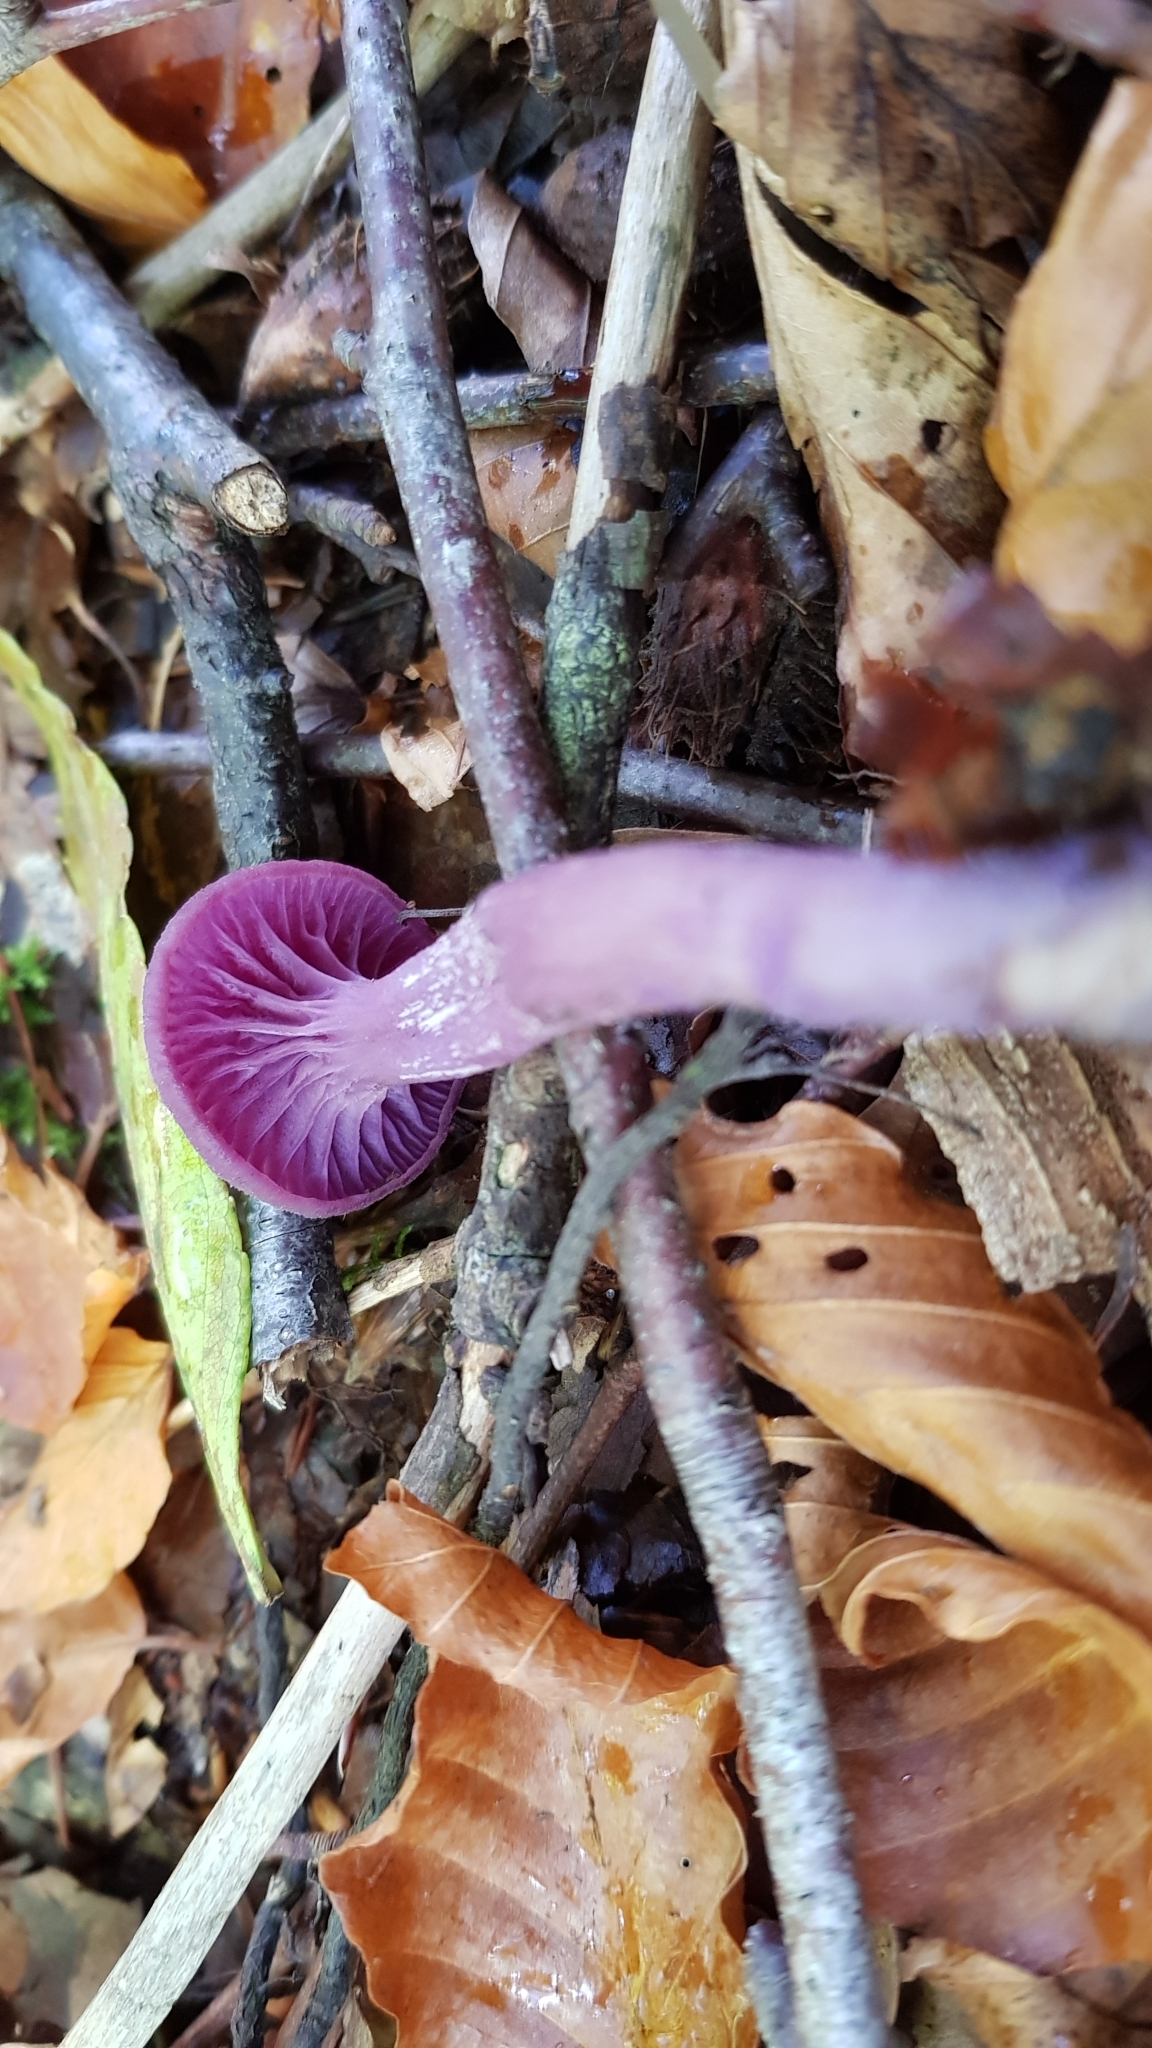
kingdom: Fungi
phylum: Basidiomycota
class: Agaricomycetes
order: Agaricales
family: Hydnangiaceae
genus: Laccaria
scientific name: Laccaria amethystina
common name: Amethyst deceiver
